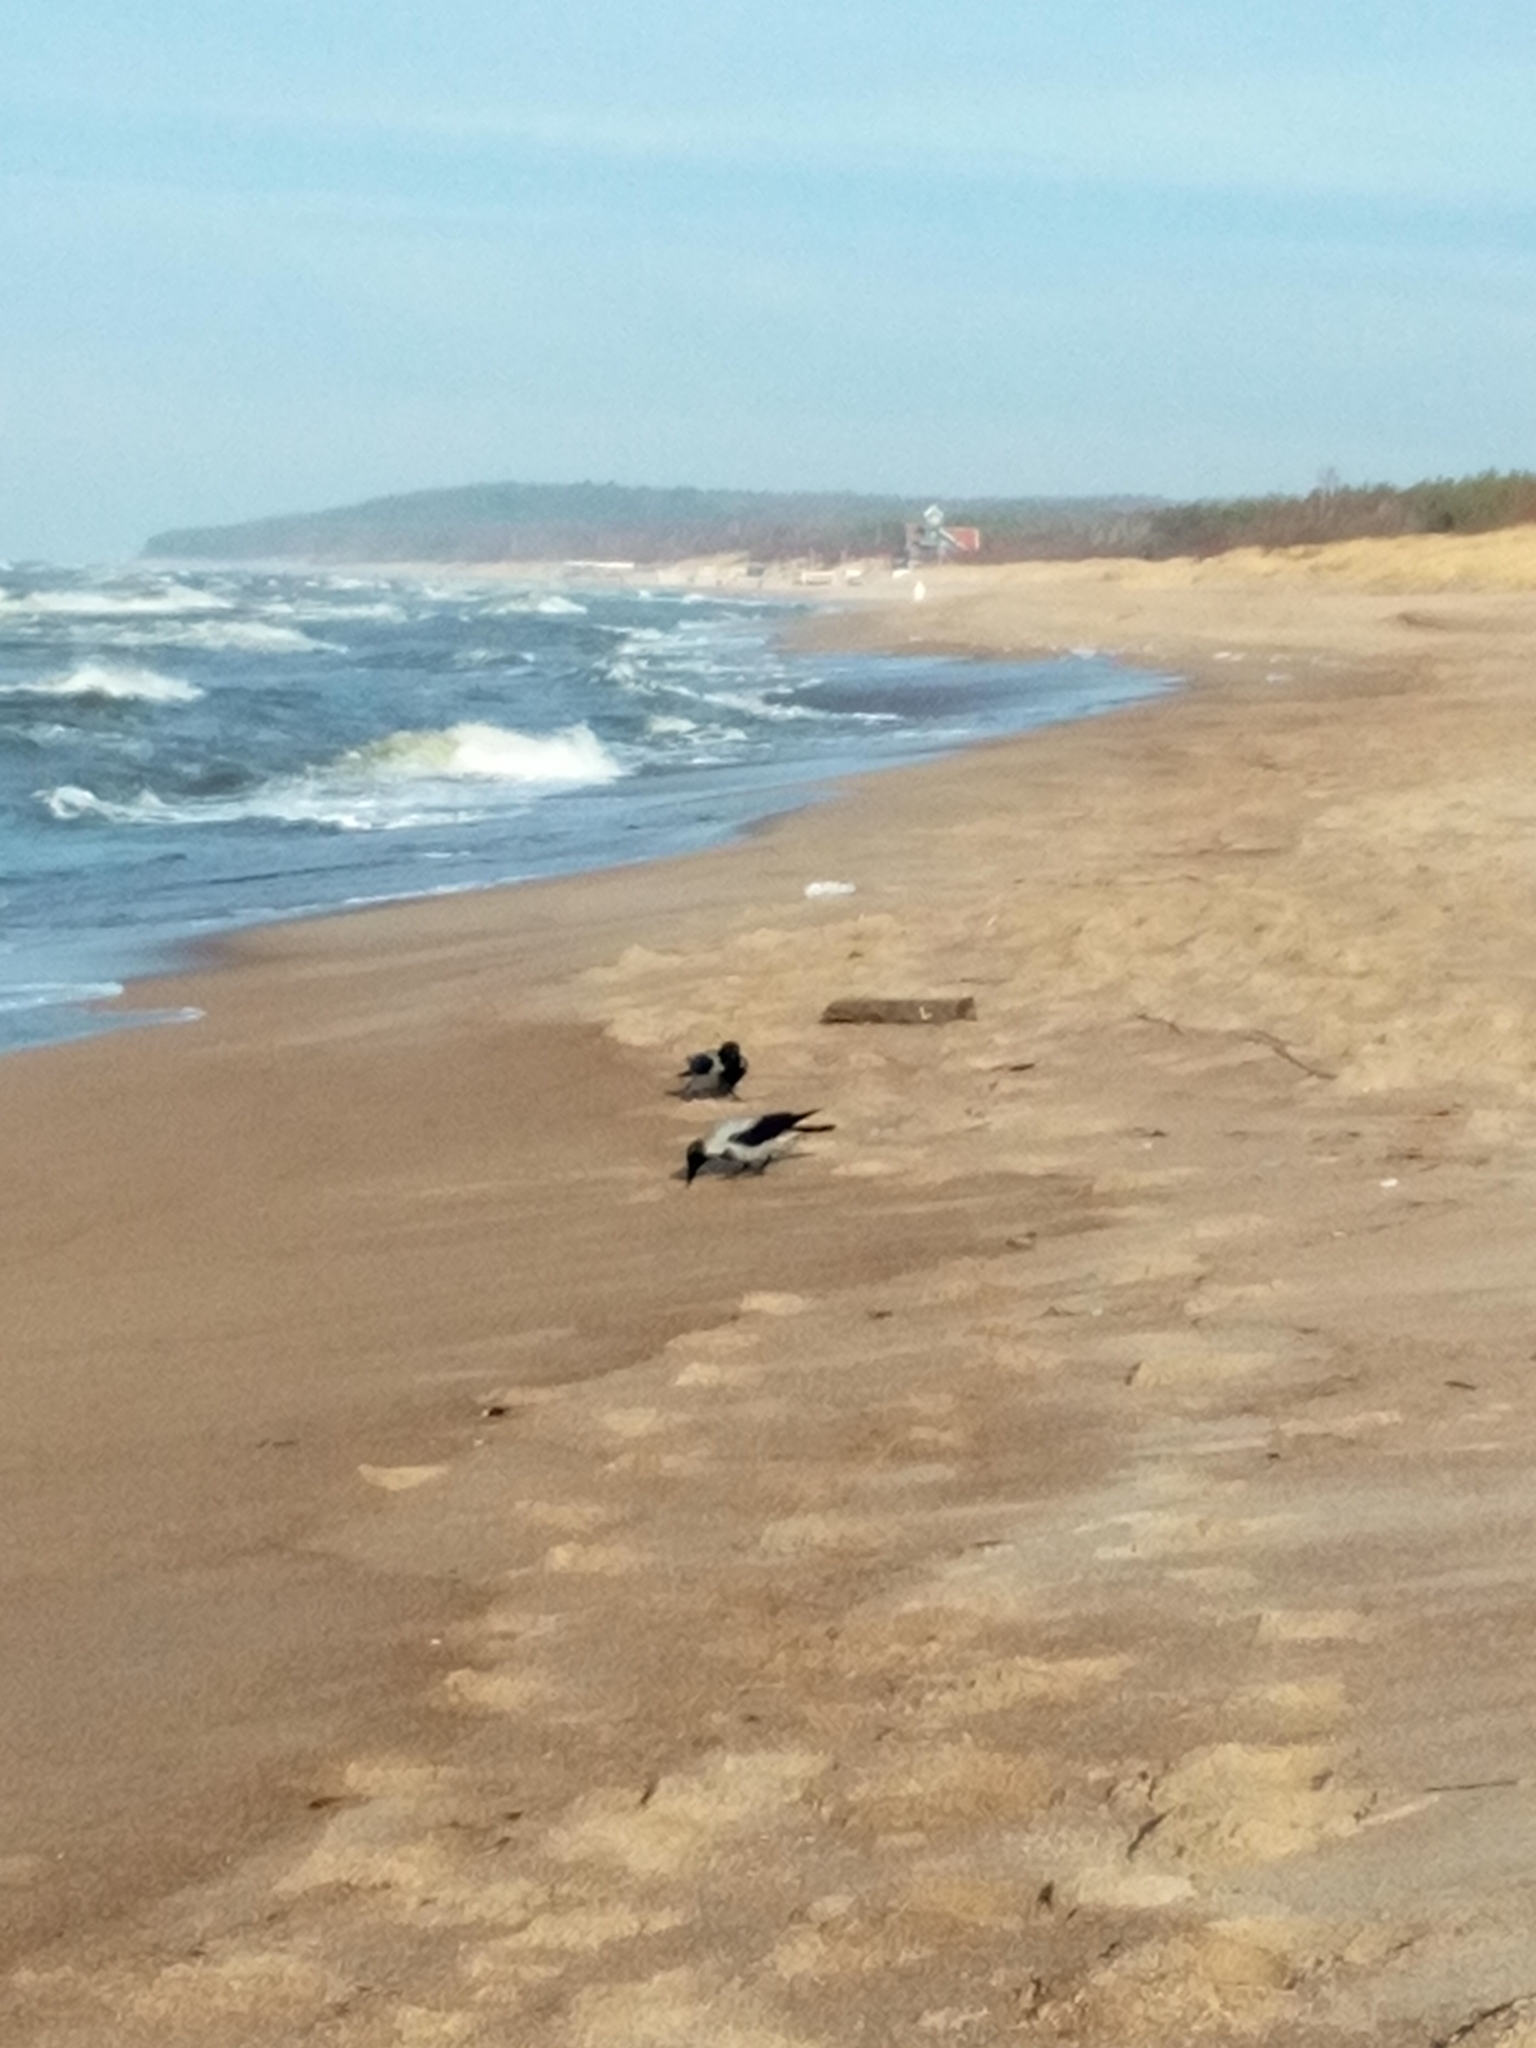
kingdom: Animalia
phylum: Chordata
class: Aves
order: Passeriformes
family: Corvidae
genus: Corvus
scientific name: Corvus cornix
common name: Hooded crow
